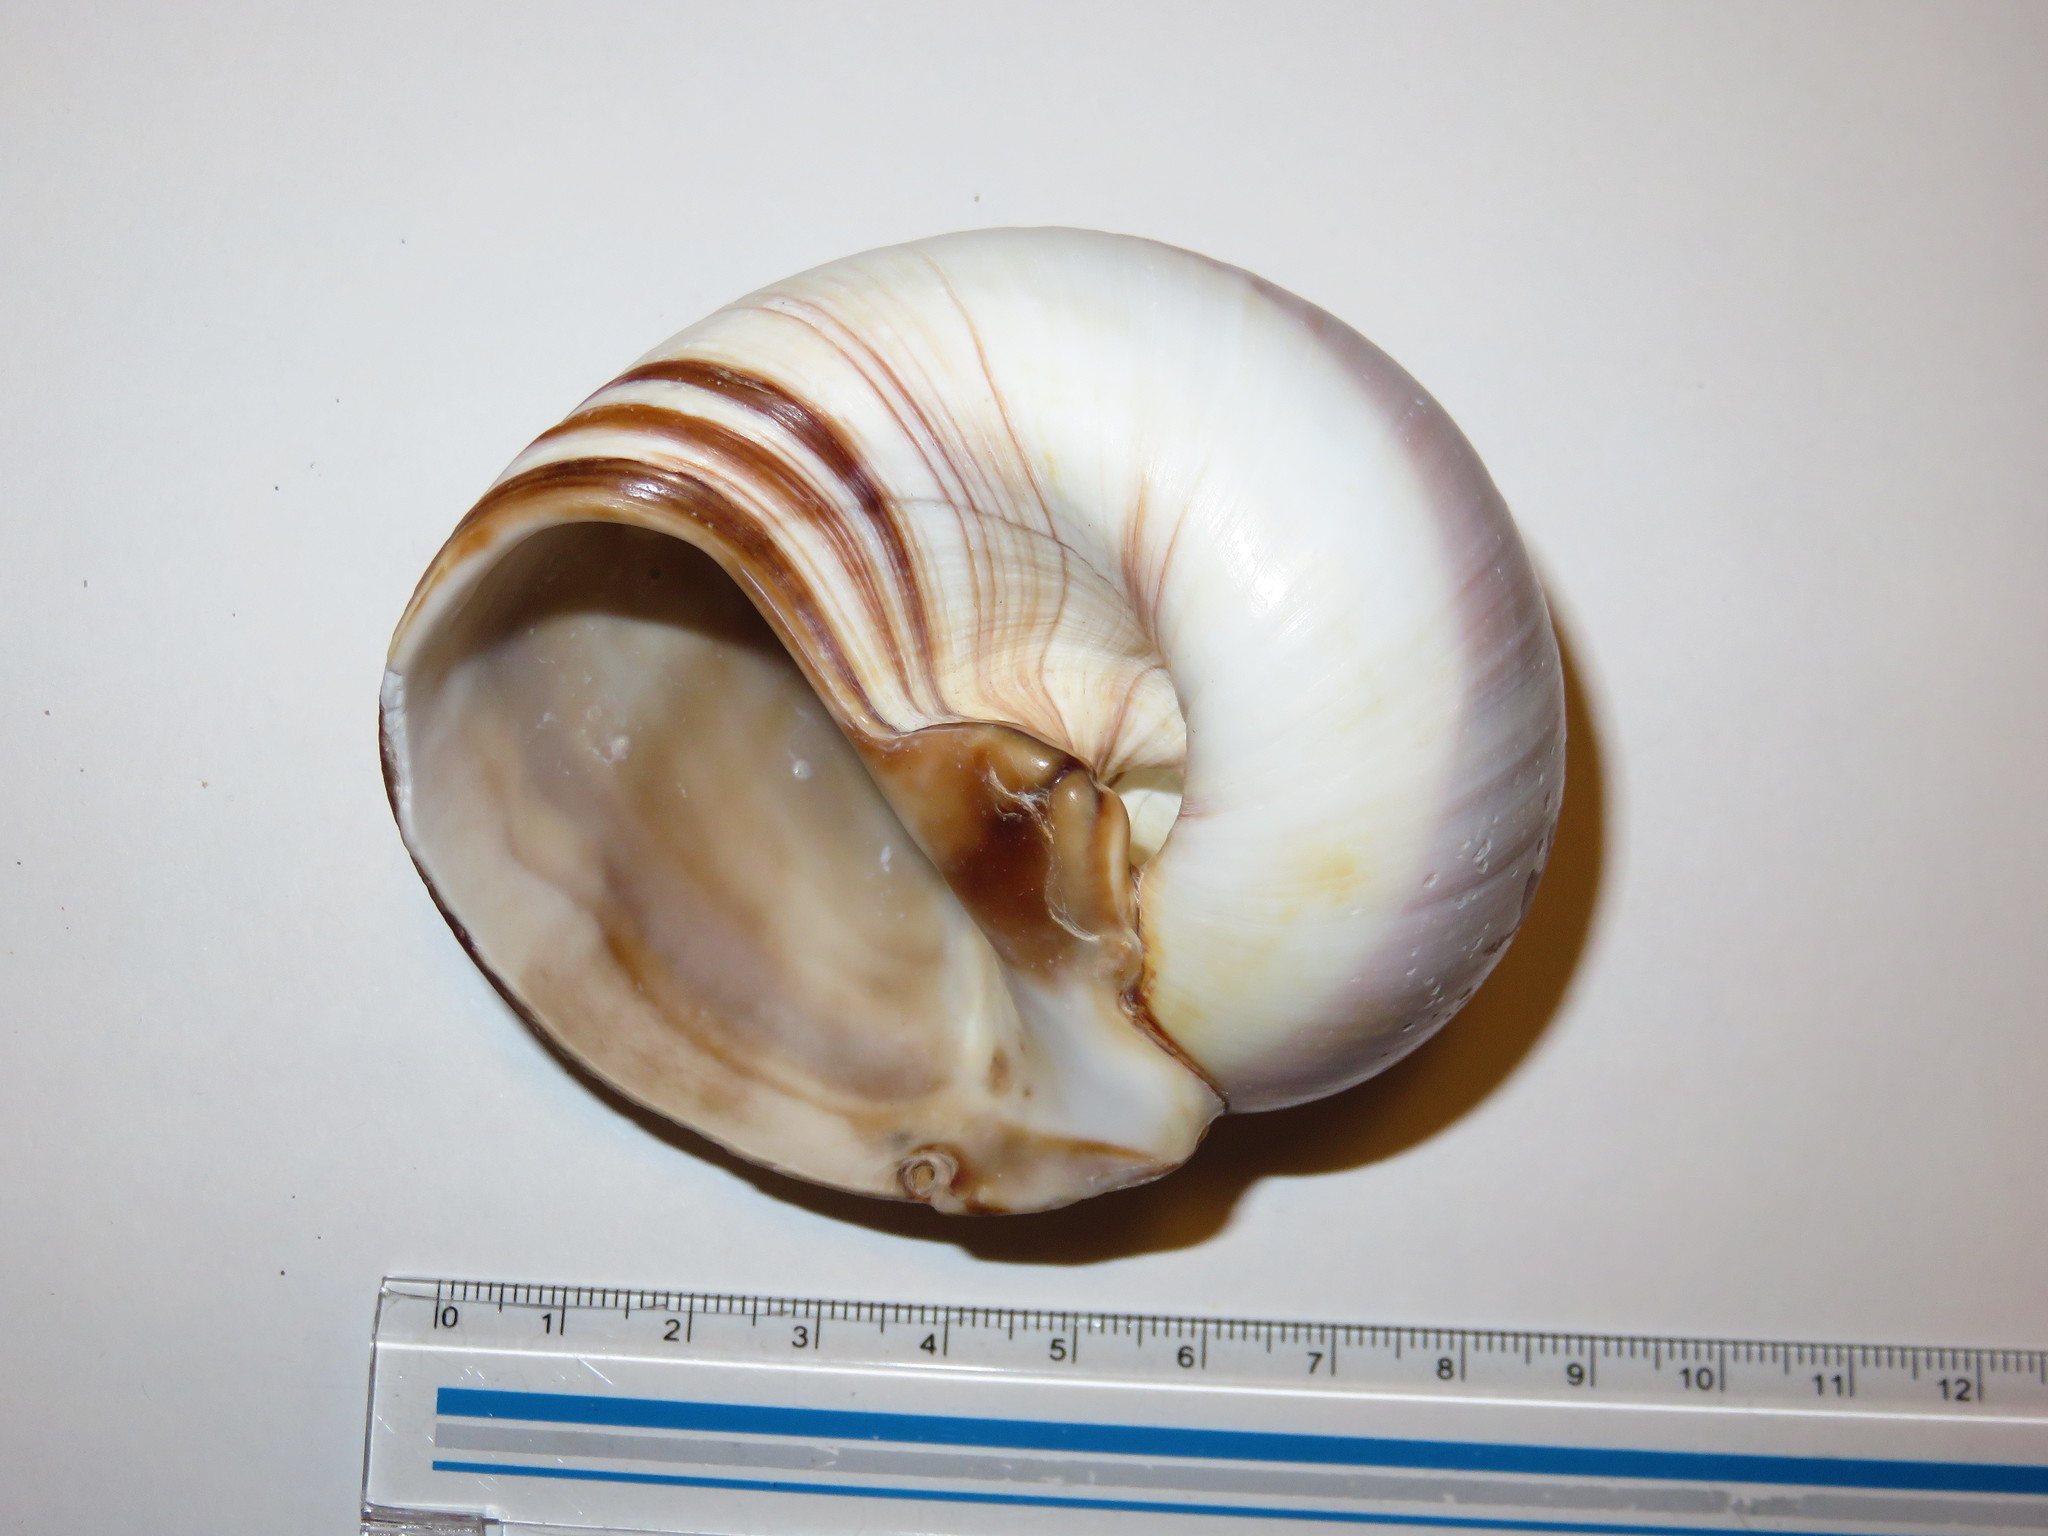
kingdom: Animalia
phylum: Mollusca
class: Gastropoda
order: Littorinimorpha
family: Naticidae
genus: Neverita
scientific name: Neverita didyma
